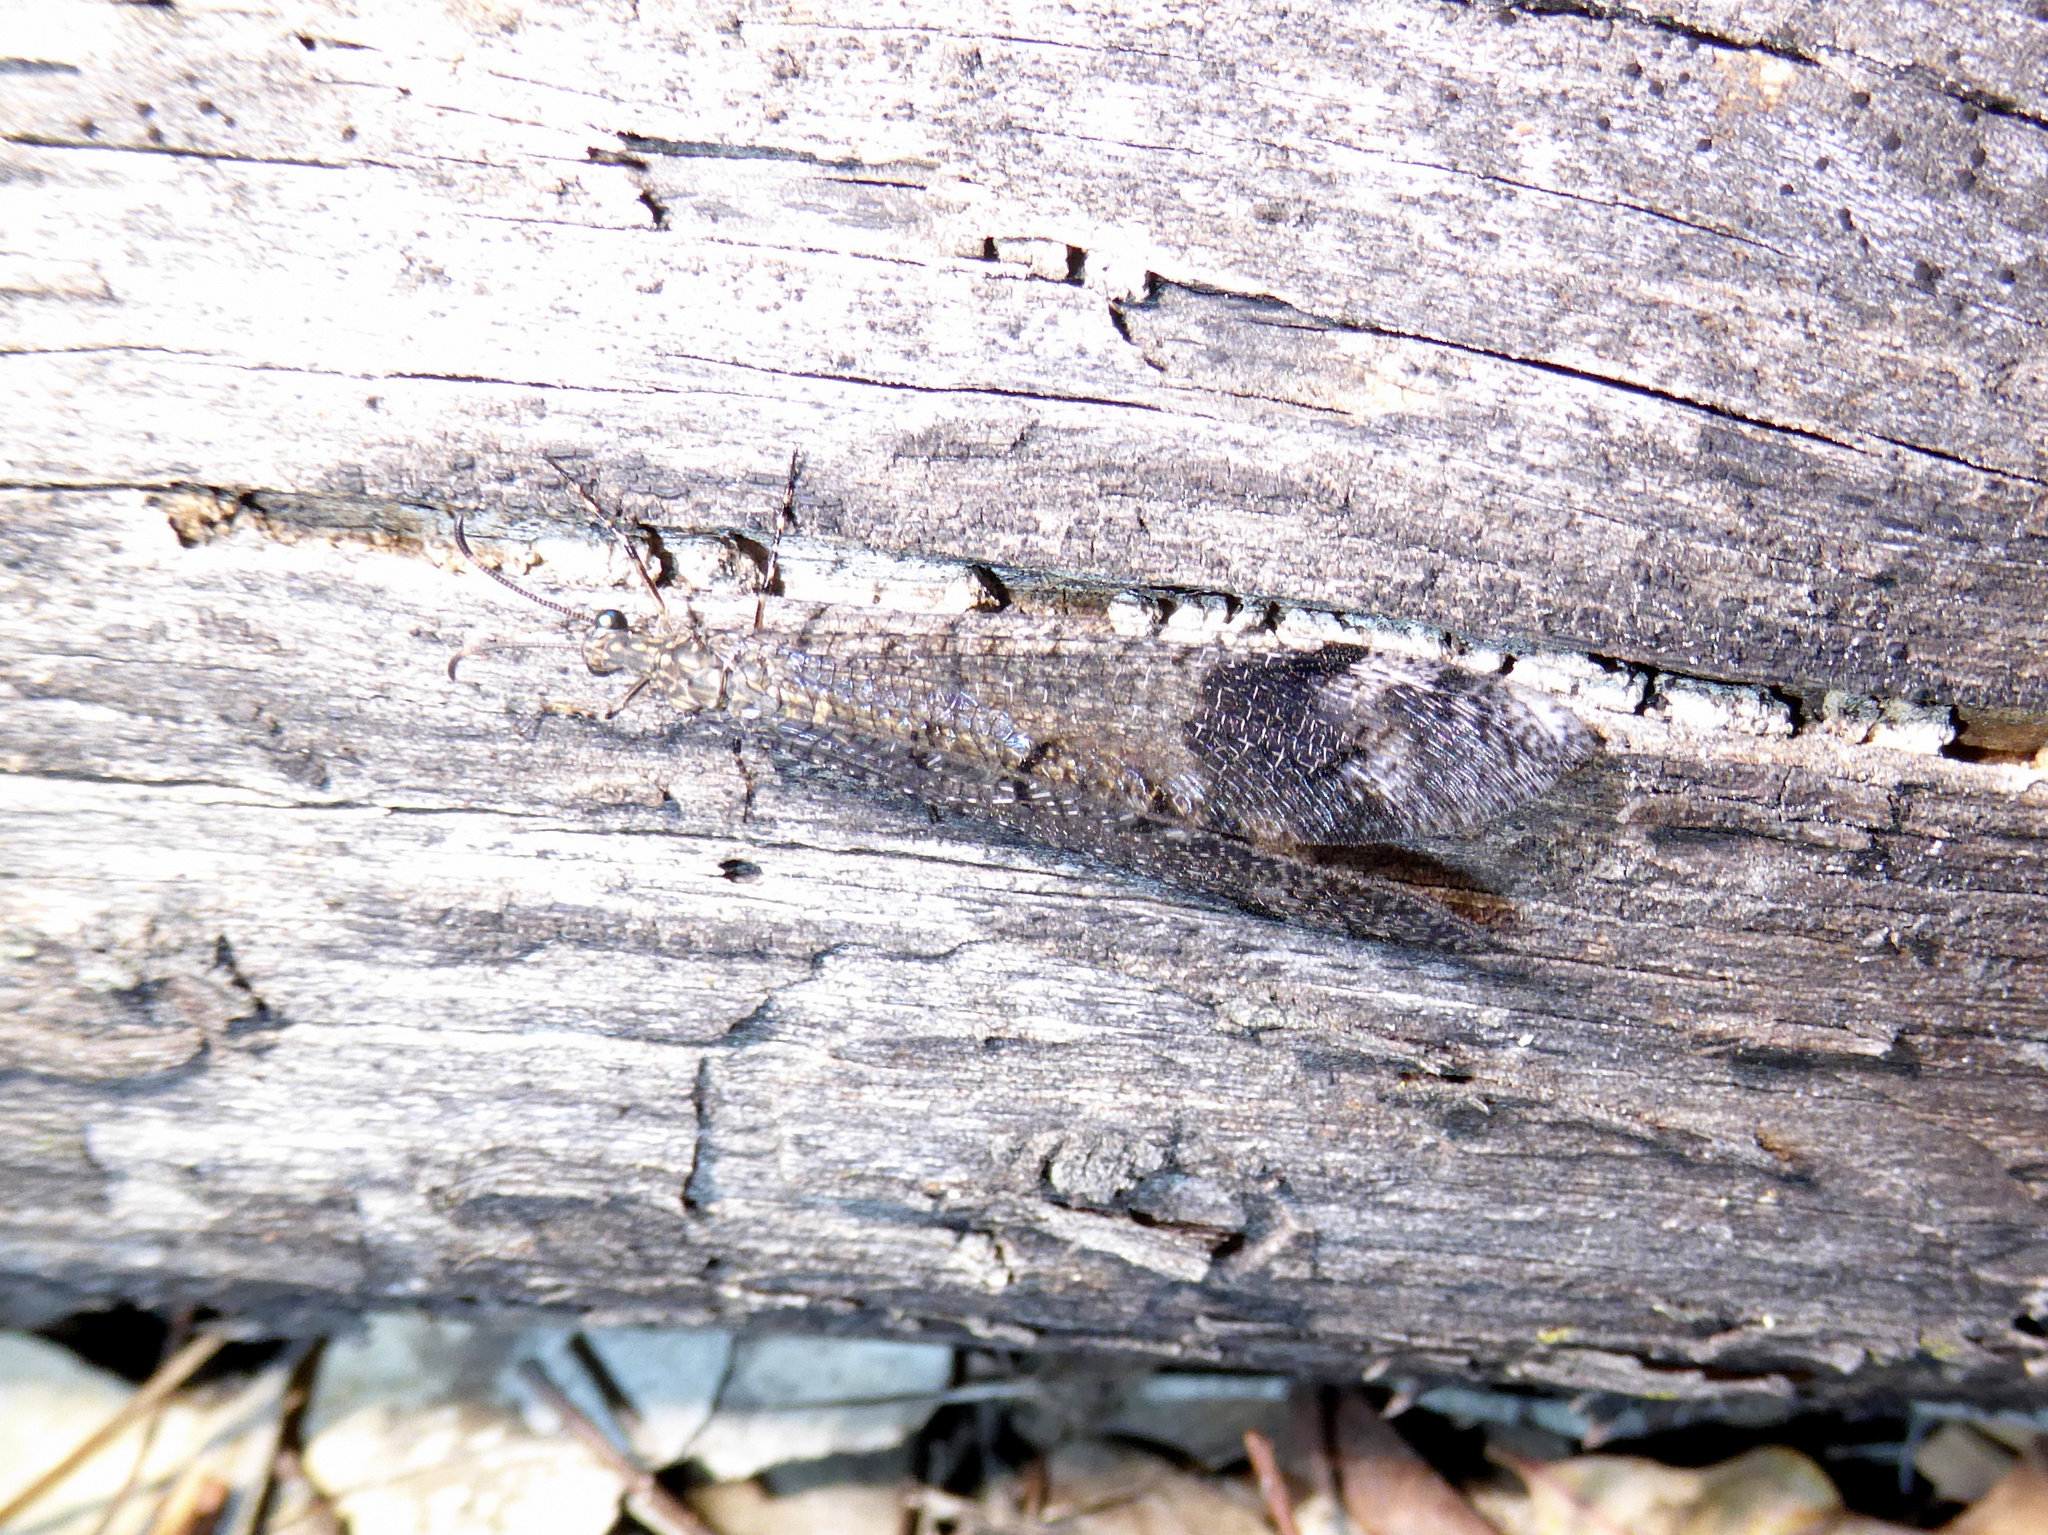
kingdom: Animalia
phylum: Arthropoda
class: Insecta
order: Neuroptera
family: Myrmeleontidae
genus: Glenoleon
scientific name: Glenoleon pulchellus
